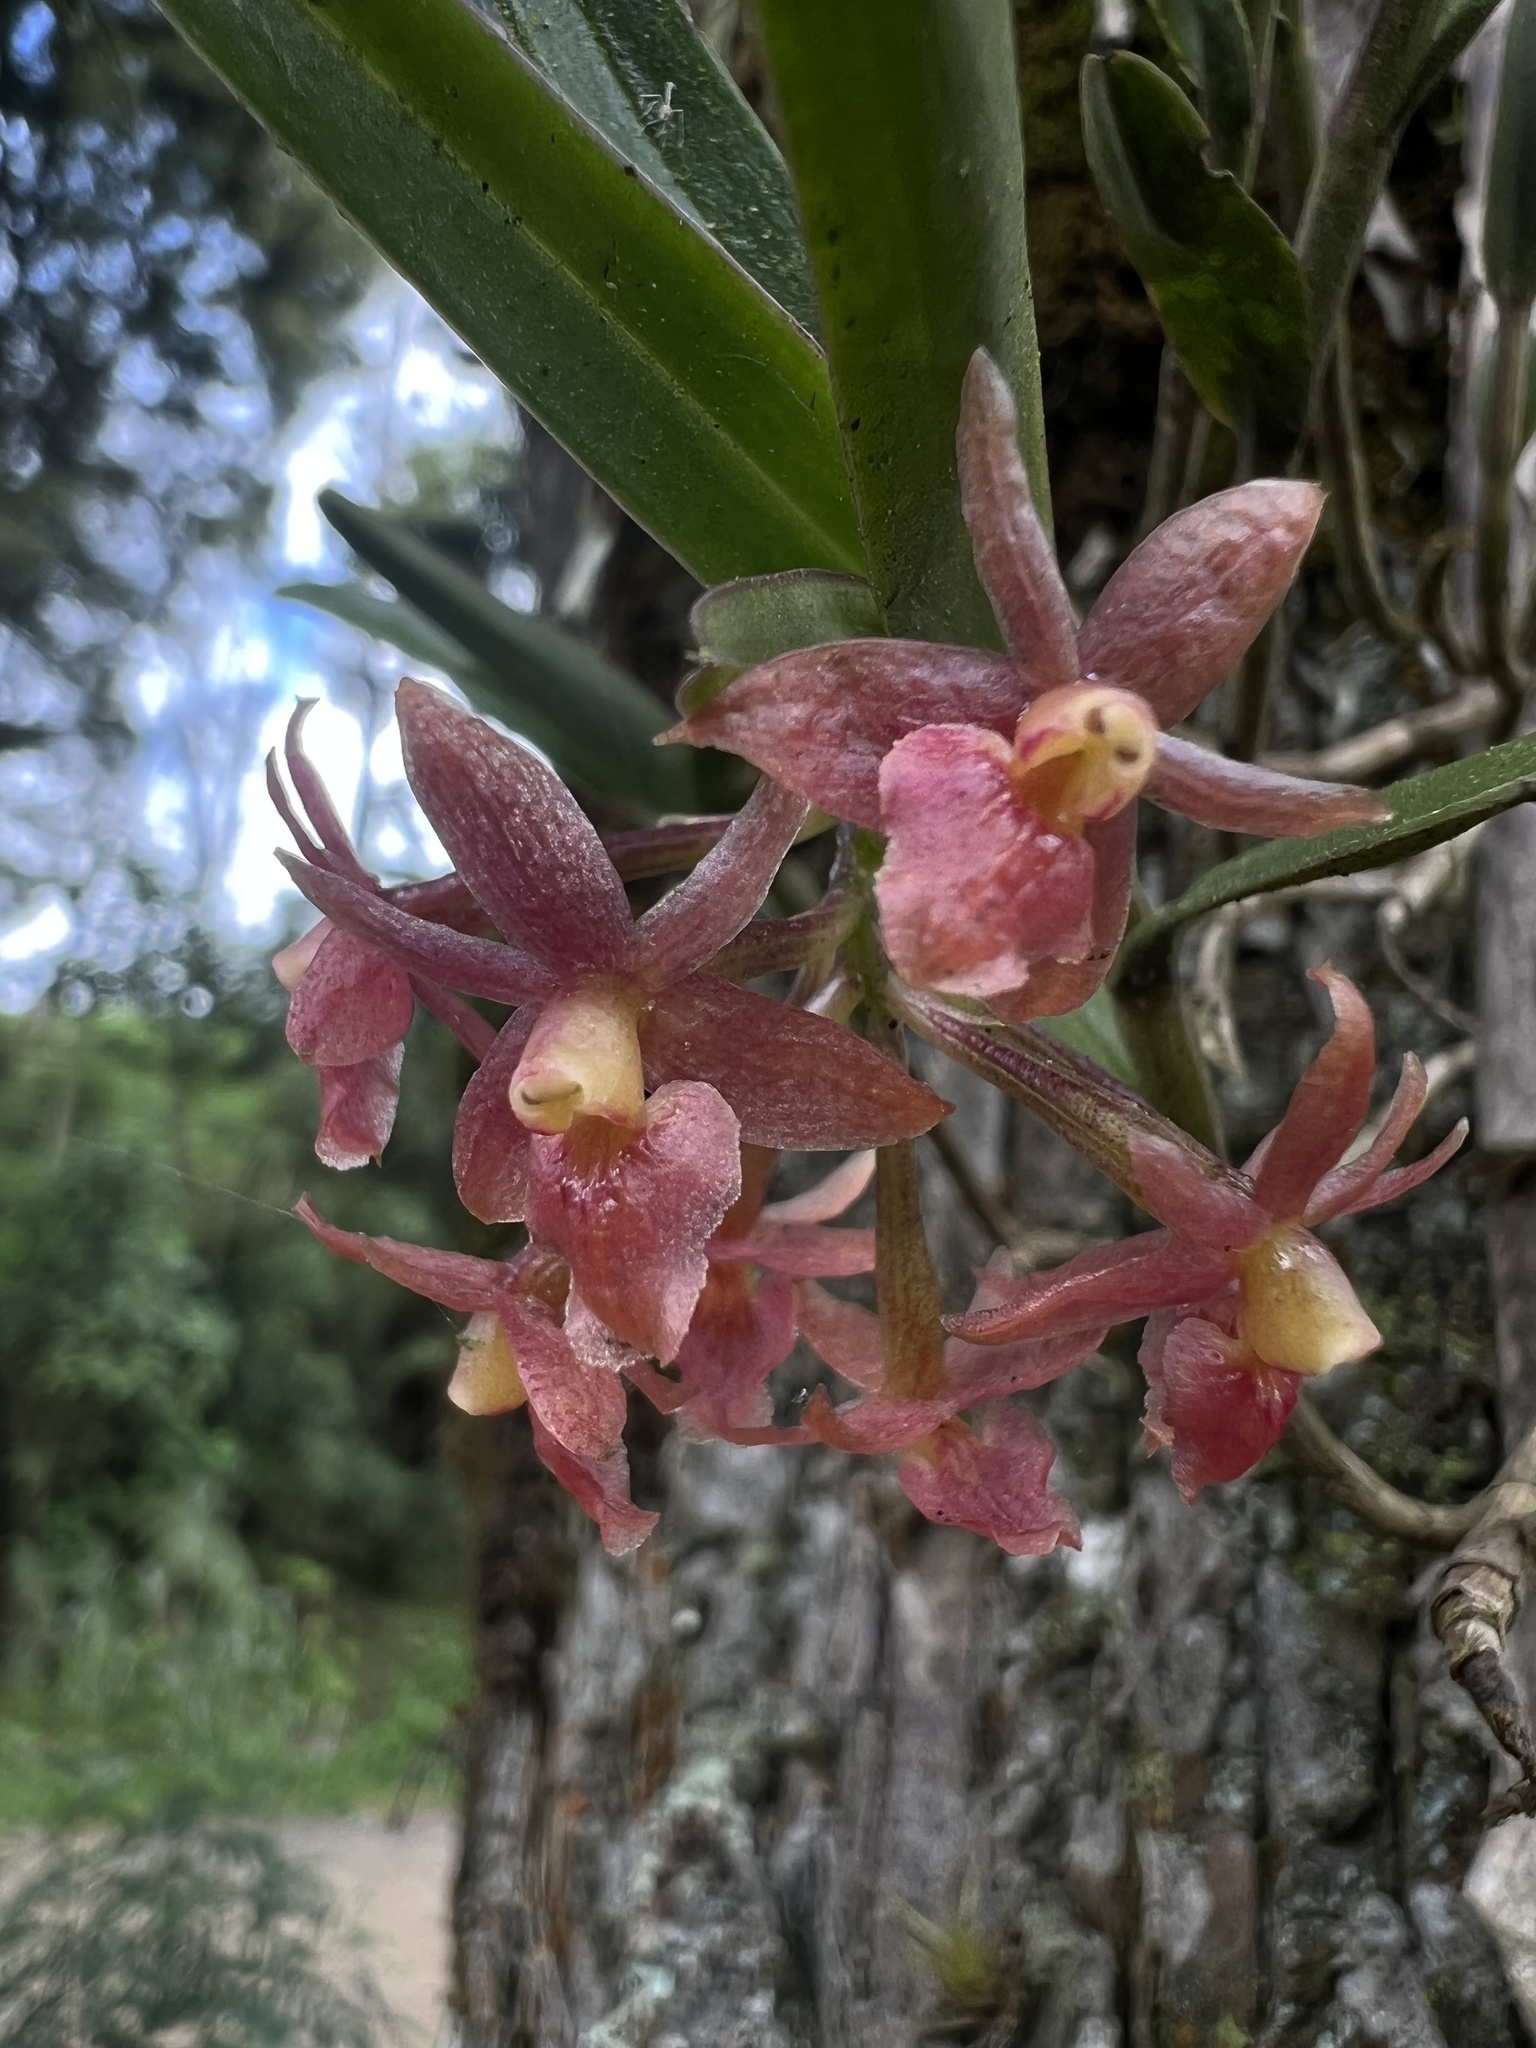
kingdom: Plantae
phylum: Tracheophyta
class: Liliopsida
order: Asparagales
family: Orchidaceae
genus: Epidendrum
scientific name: Epidendrum oxysepalum
